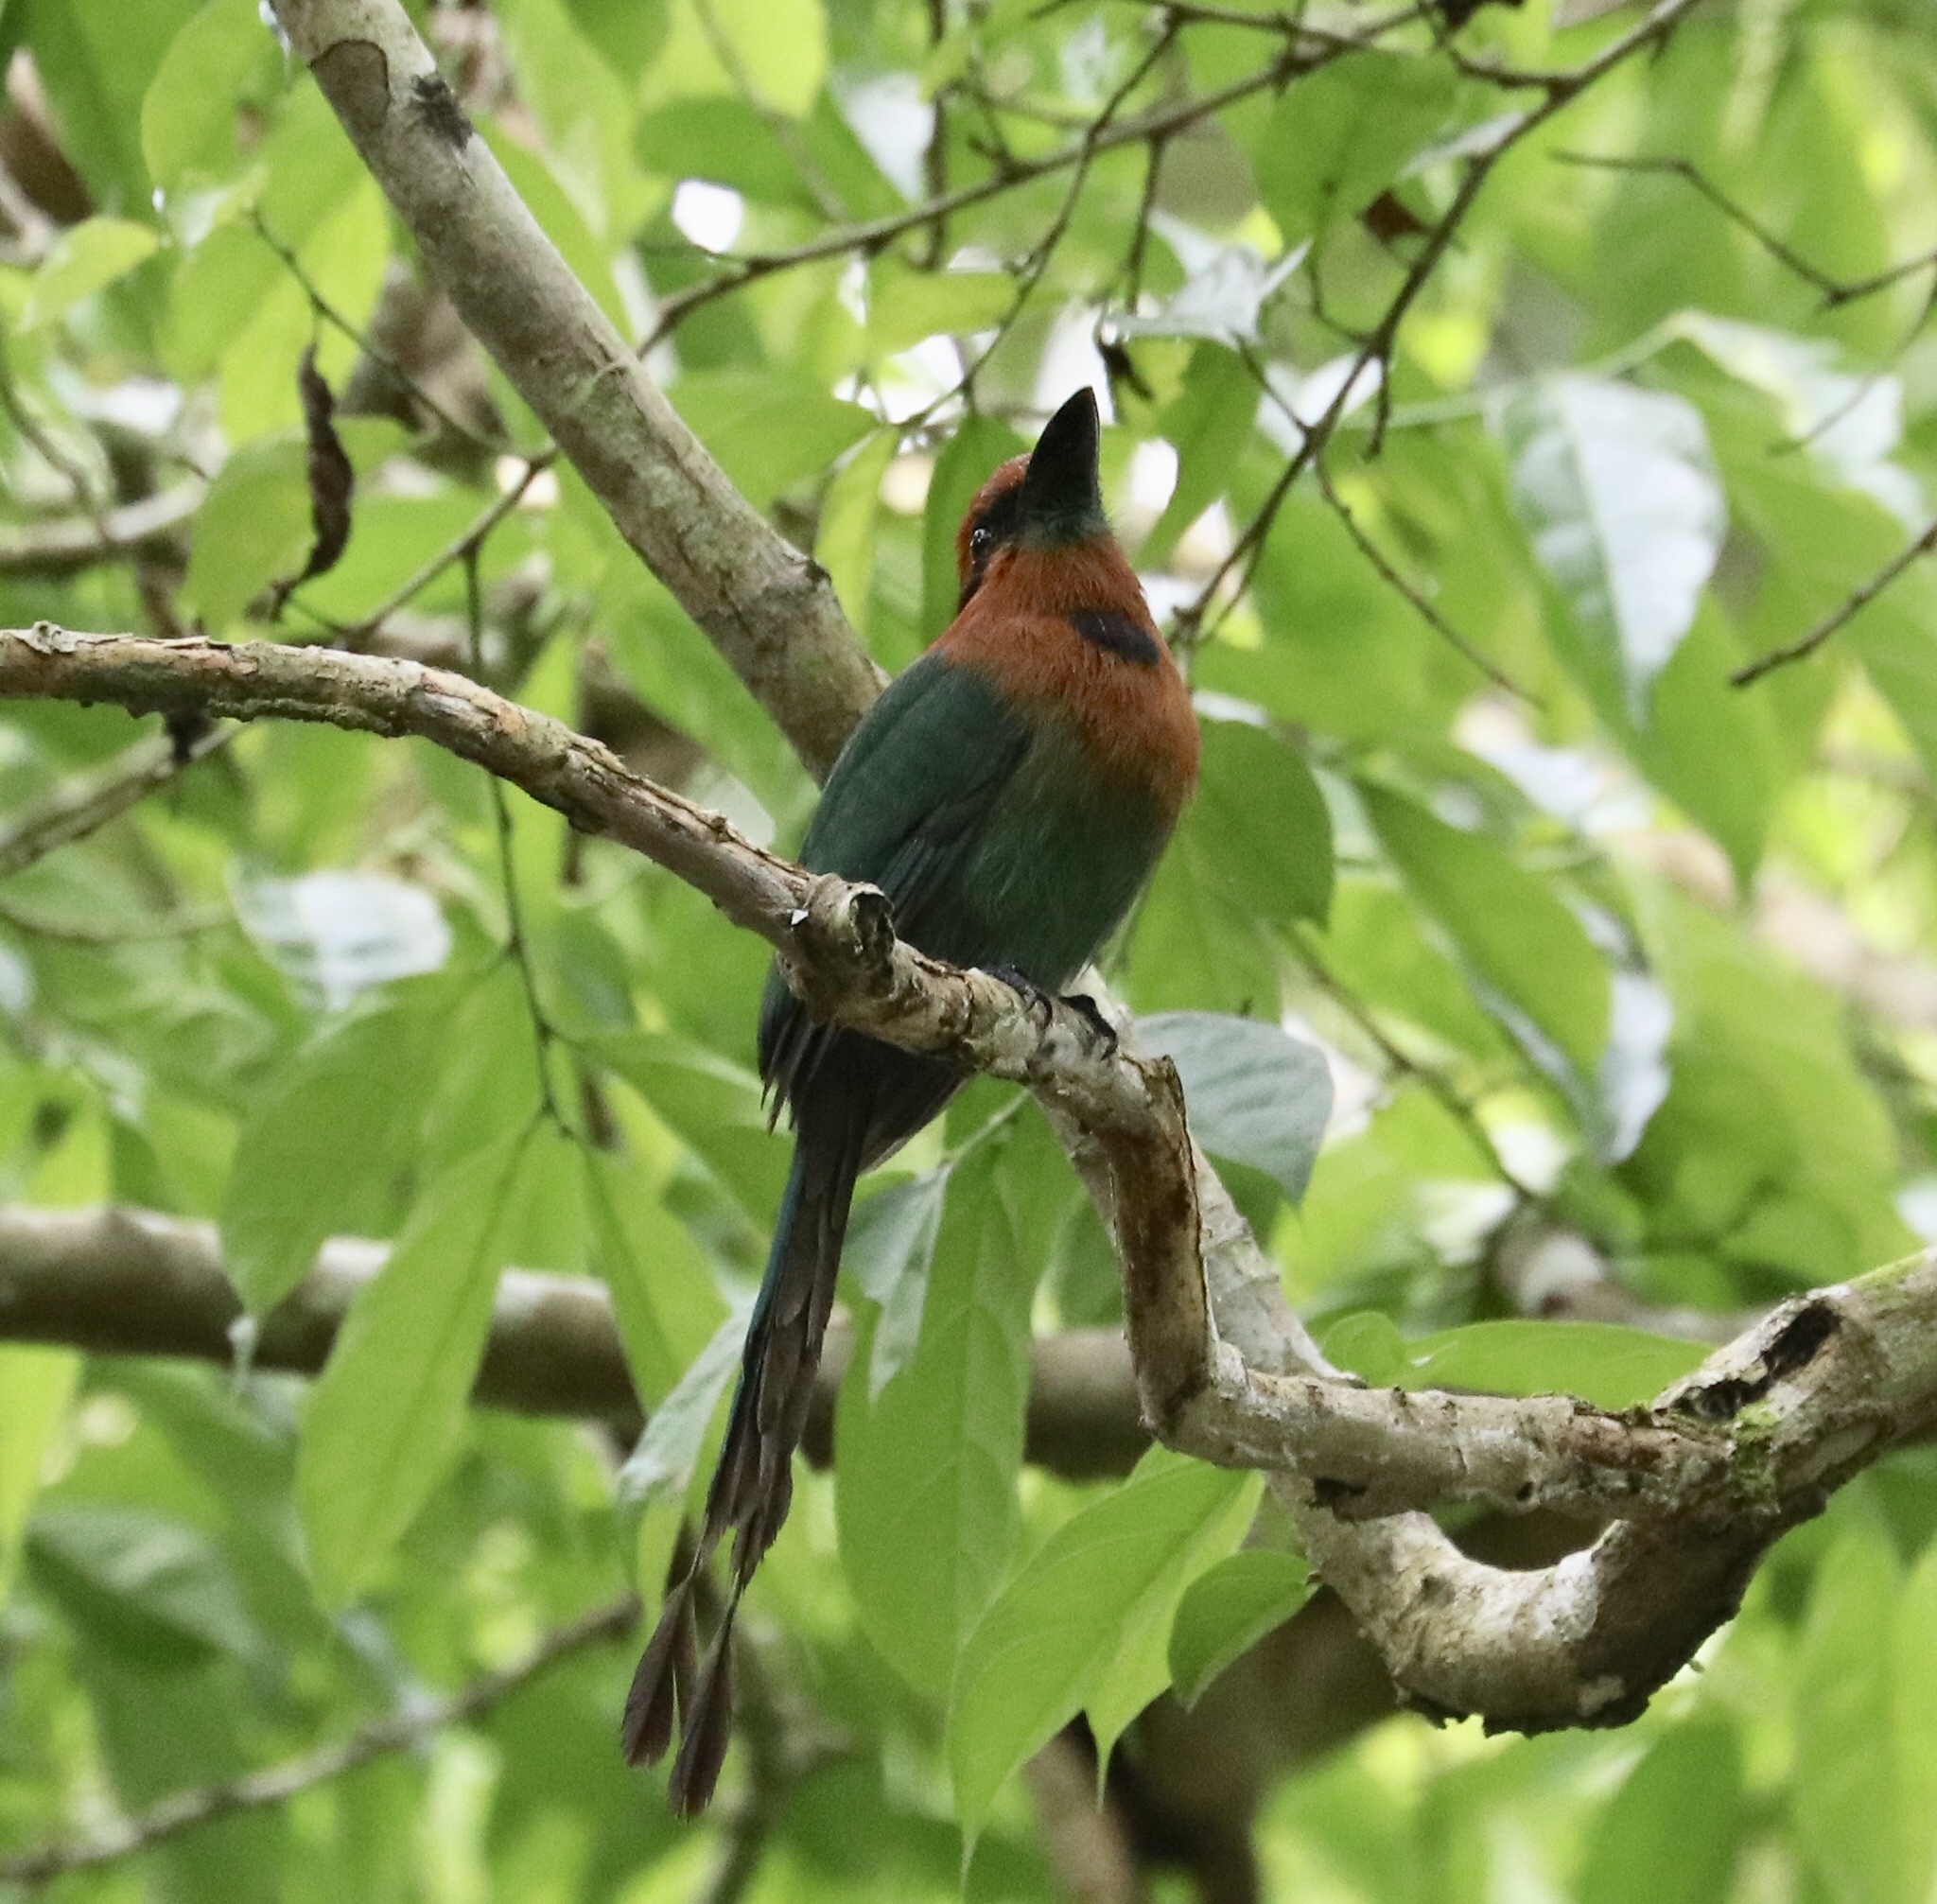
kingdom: Animalia
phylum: Chordata
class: Aves
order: Coraciiformes
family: Momotidae
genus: Electron
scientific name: Electron platyrhynchum
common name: Broad-billed motmot
